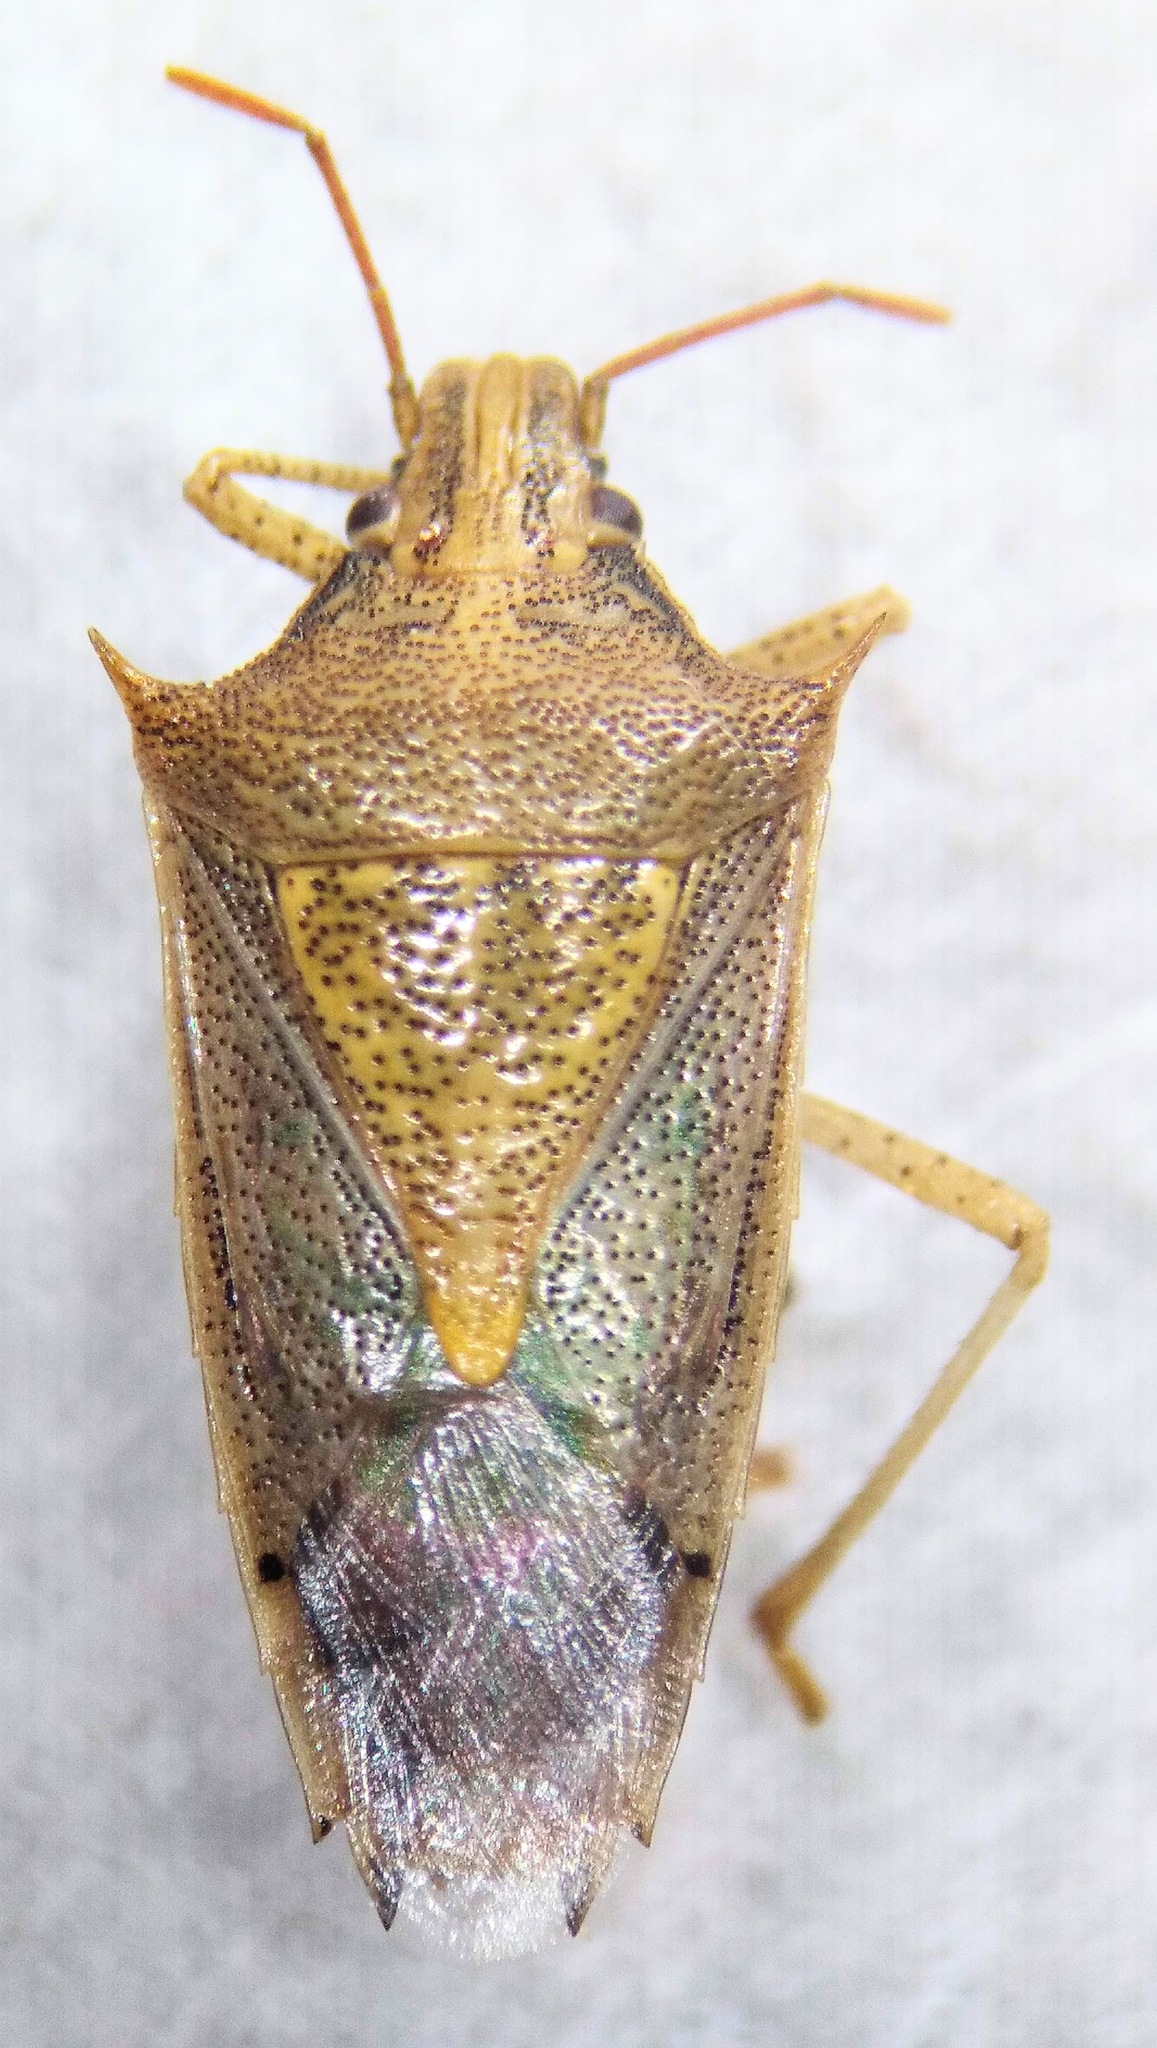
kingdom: Animalia
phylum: Arthropoda
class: Insecta
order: Hemiptera
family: Pentatomidae
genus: Oebalus
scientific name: Oebalus pugnax
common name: Rice stink bug
